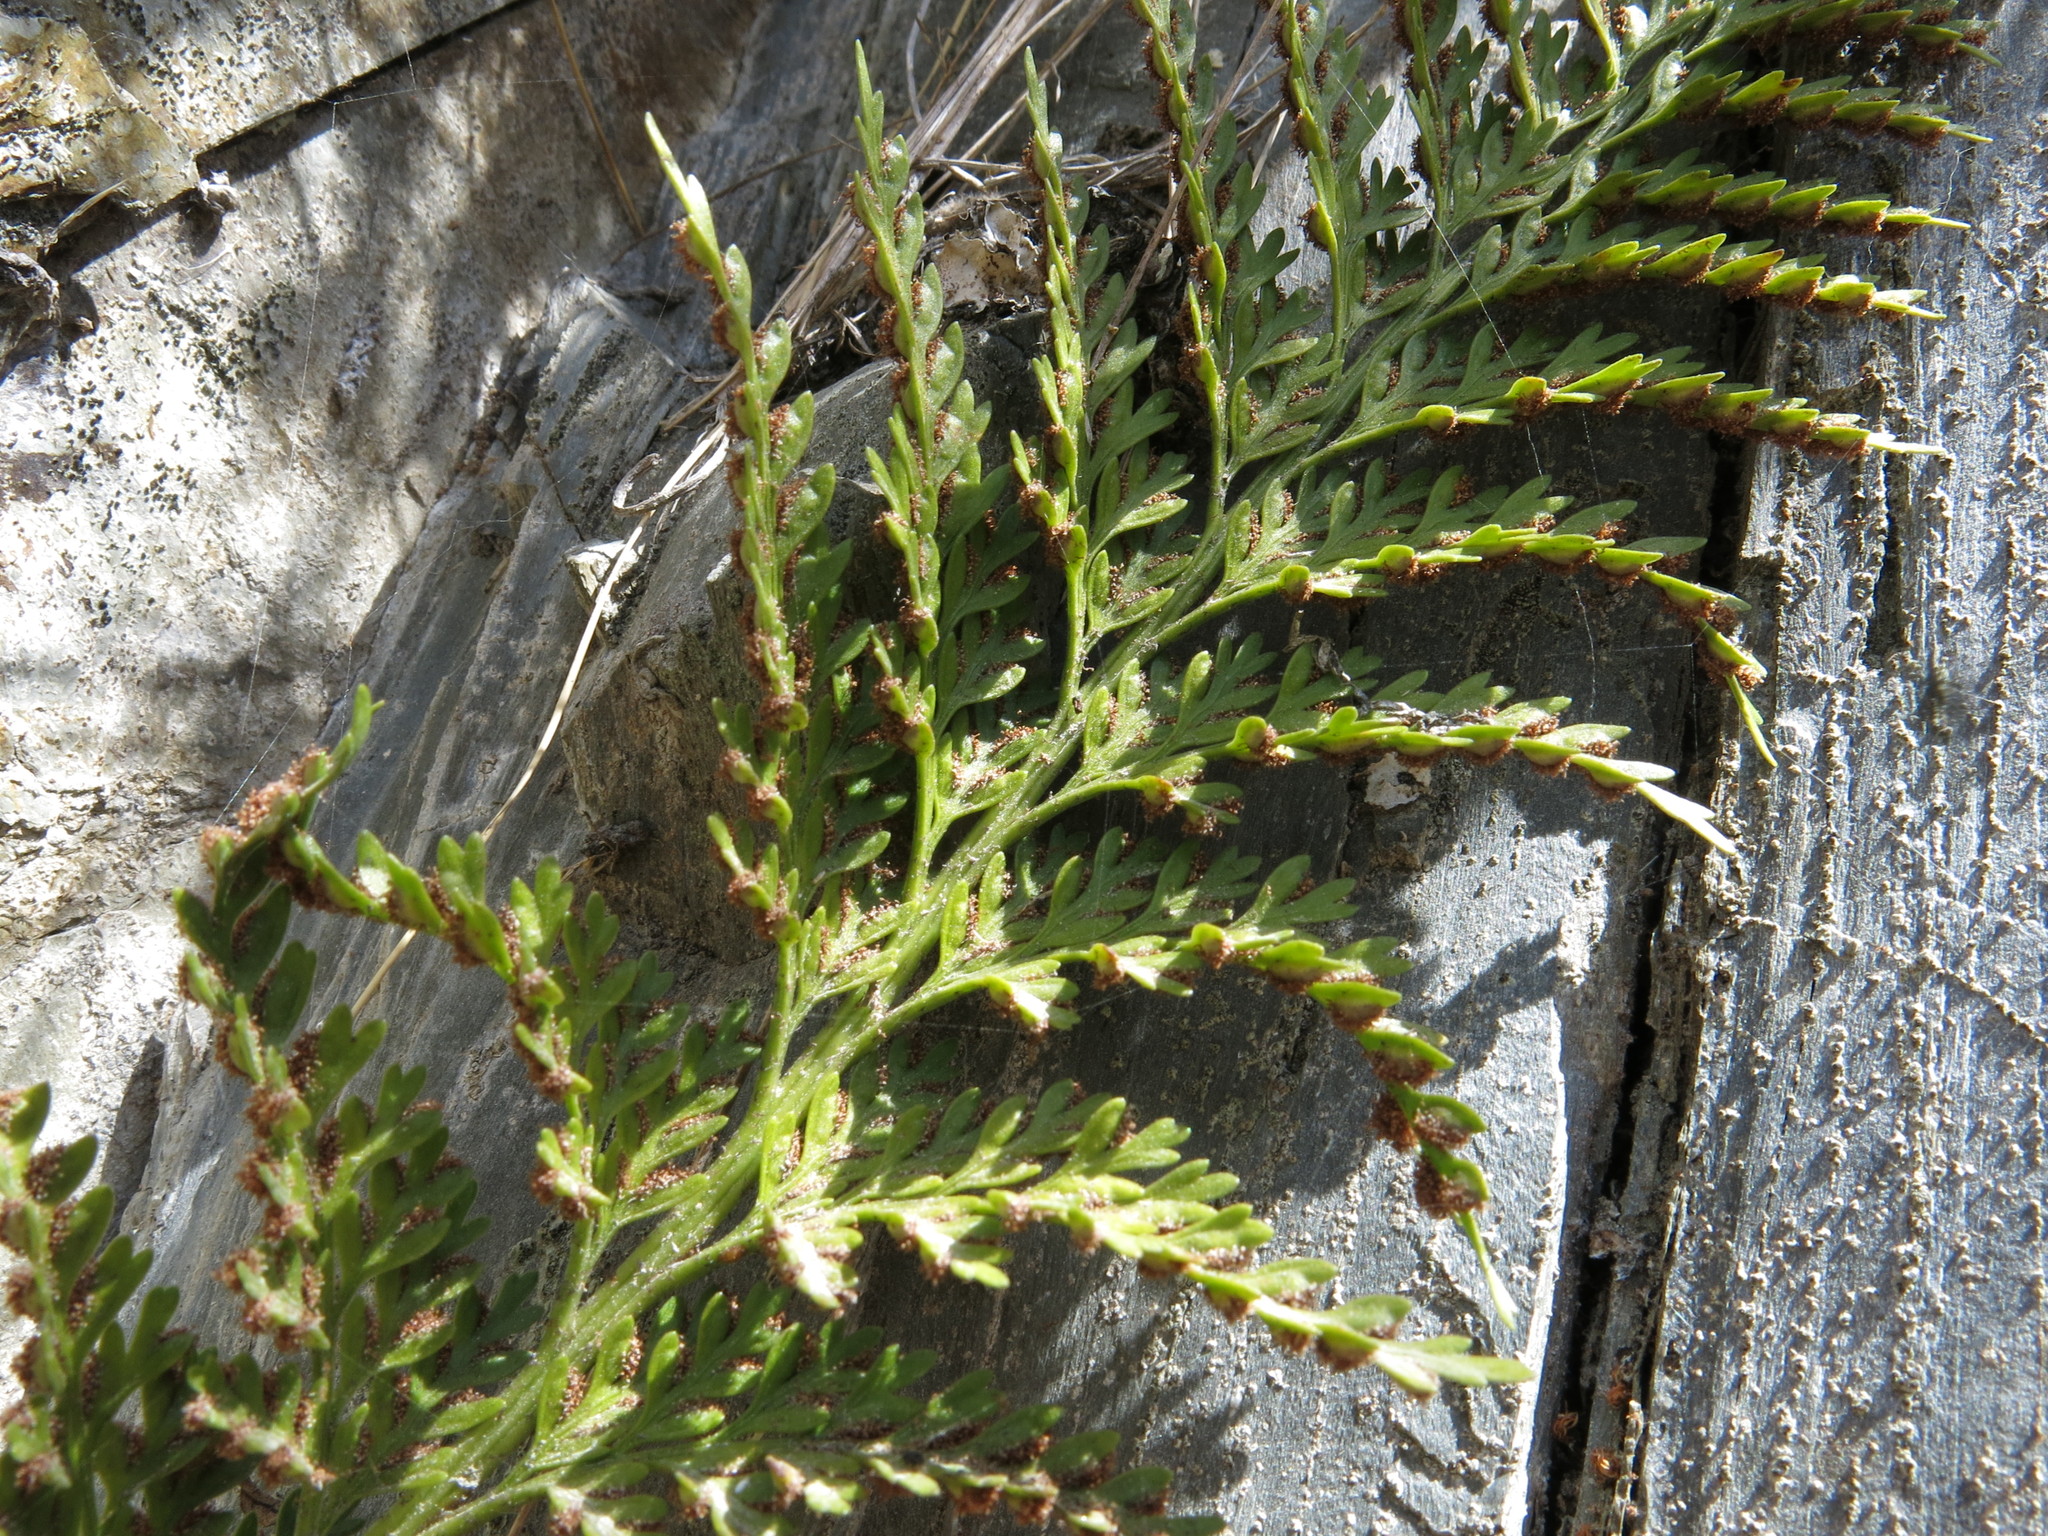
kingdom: Plantae
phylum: Tracheophyta
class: Polypodiopsida
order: Polypodiales
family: Aspleniaceae
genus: Asplenium
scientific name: Asplenium appendiculatum
